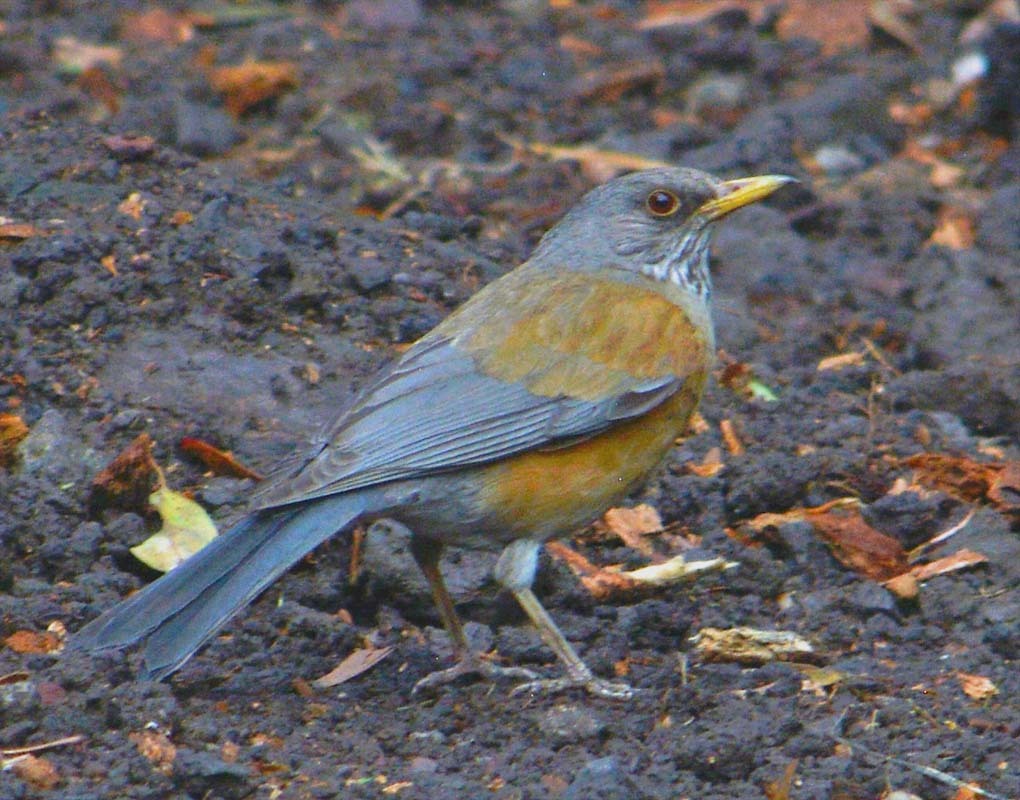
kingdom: Animalia
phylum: Chordata
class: Aves
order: Passeriformes
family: Turdidae
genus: Turdus
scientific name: Turdus rufopalliatus
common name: Rufous-backed robin
